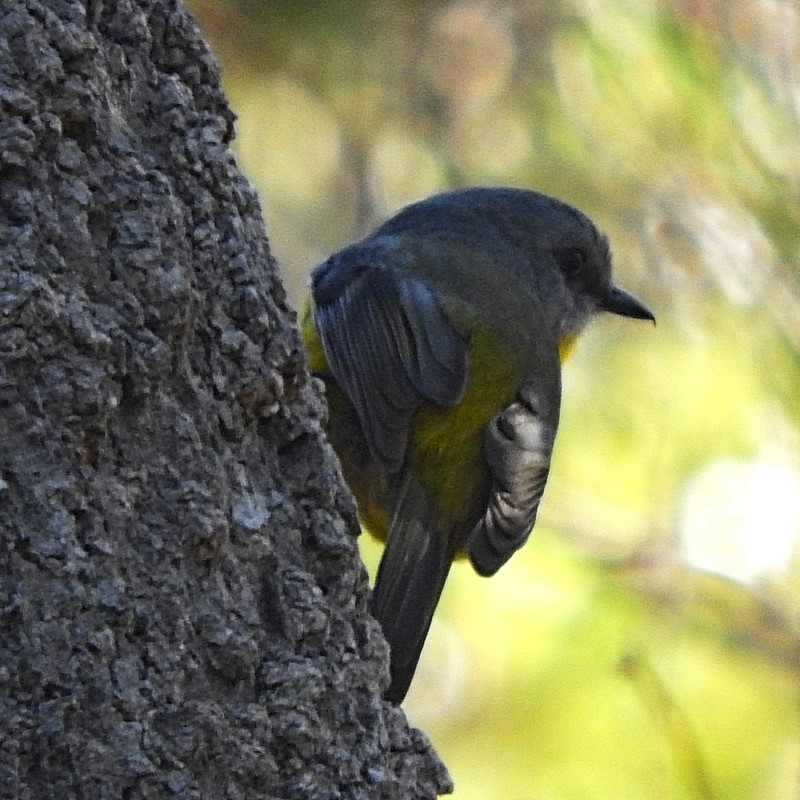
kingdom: Animalia
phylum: Chordata
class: Aves
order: Passeriformes
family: Petroicidae
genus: Eopsaltria
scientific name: Eopsaltria australis
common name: Eastern yellow robin
